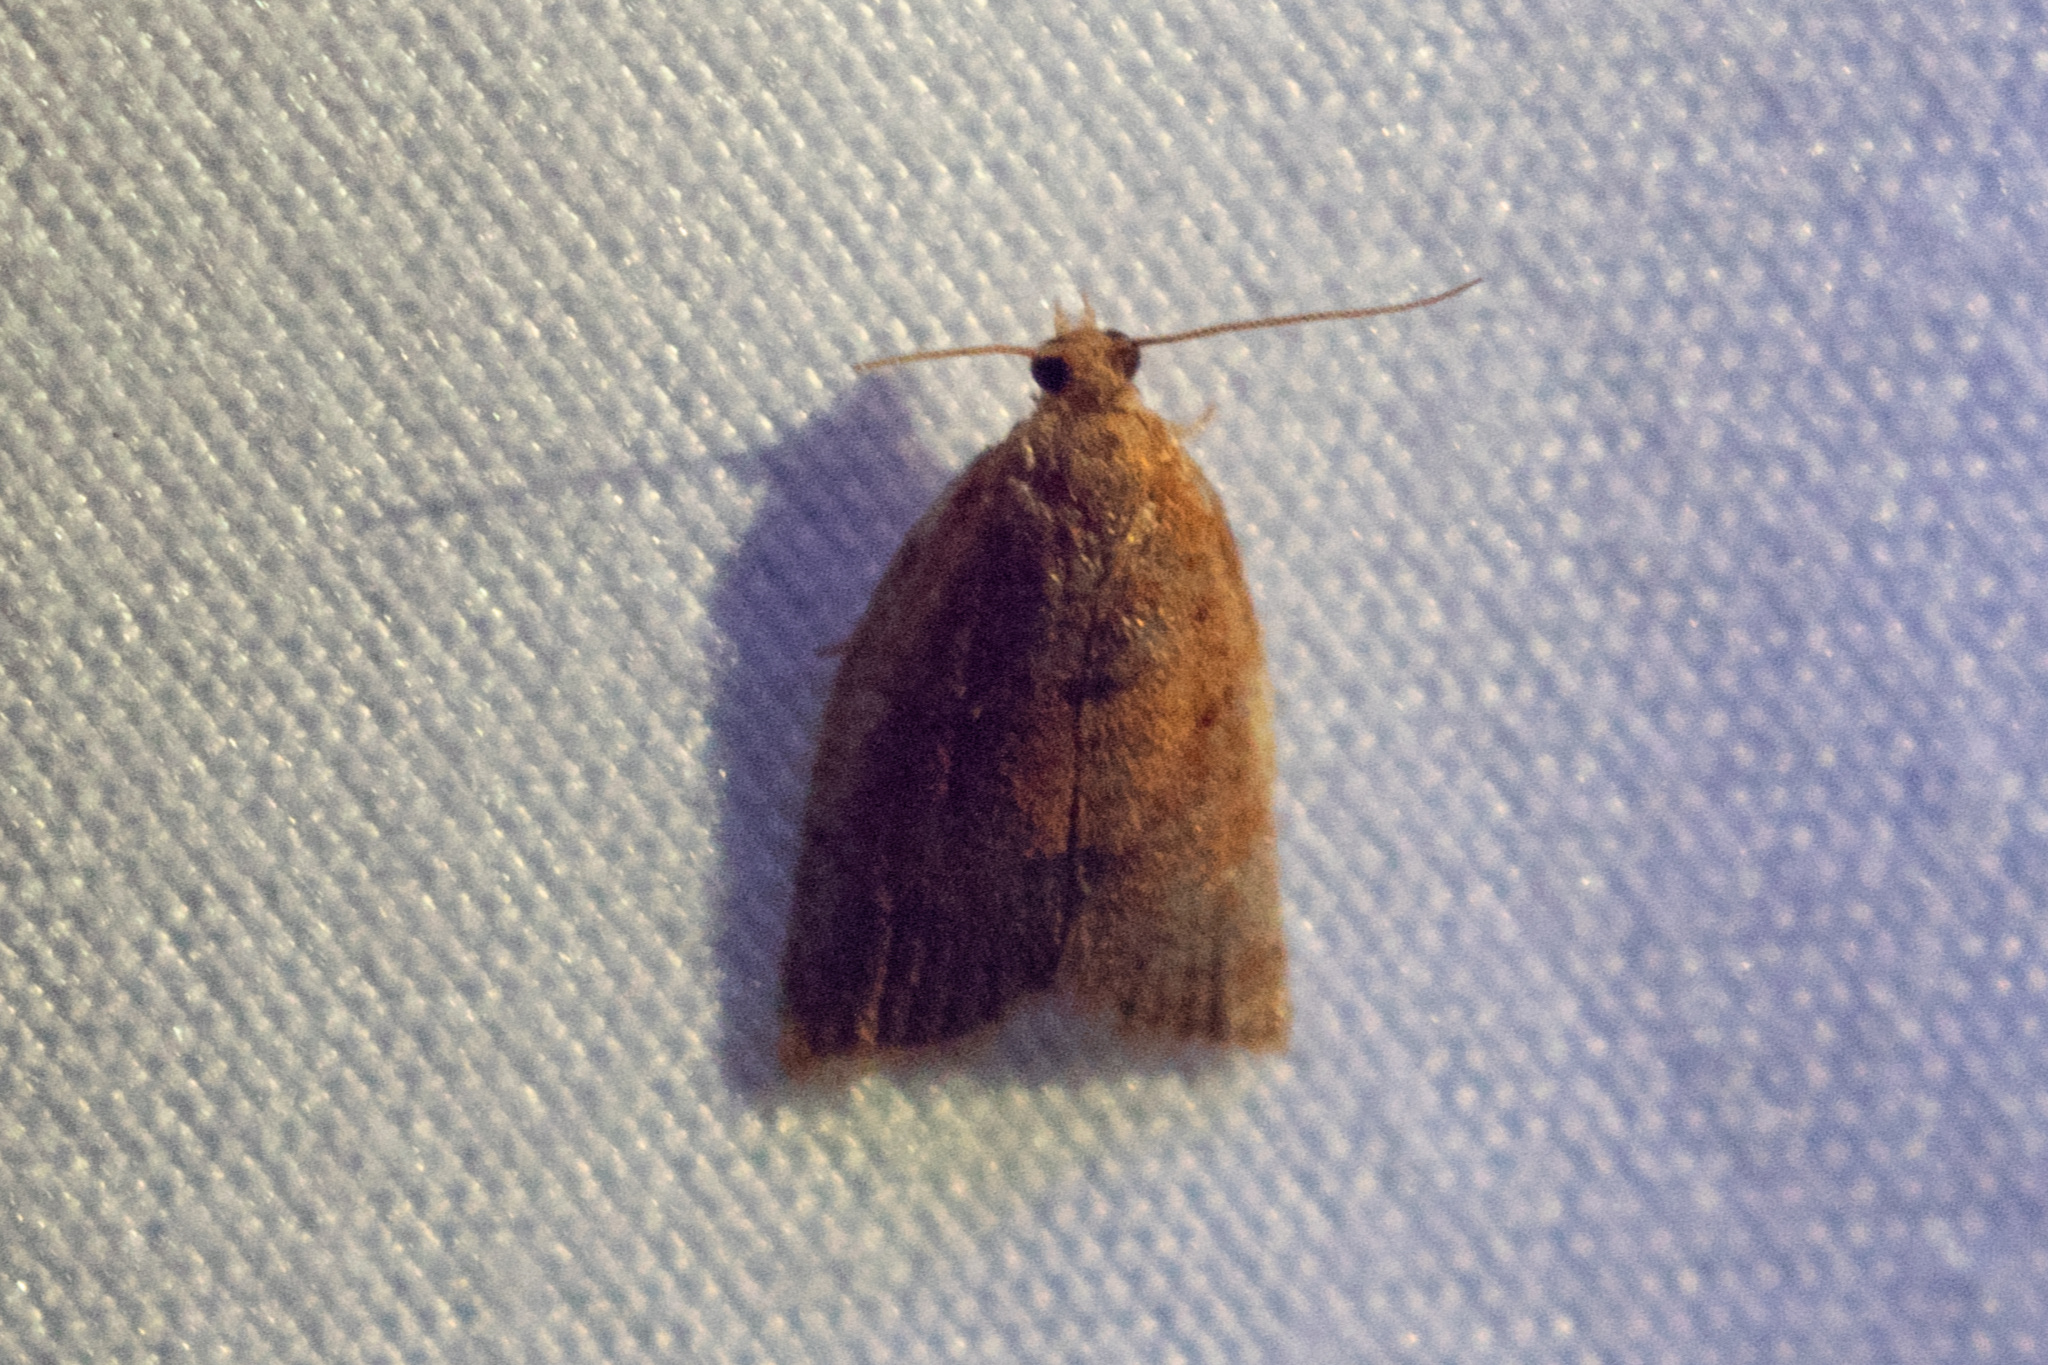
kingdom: Animalia
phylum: Arthropoda
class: Insecta
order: Lepidoptera
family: Tortricidae
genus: Clepsis
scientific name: Clepsis consimilana
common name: Privet tortrix
